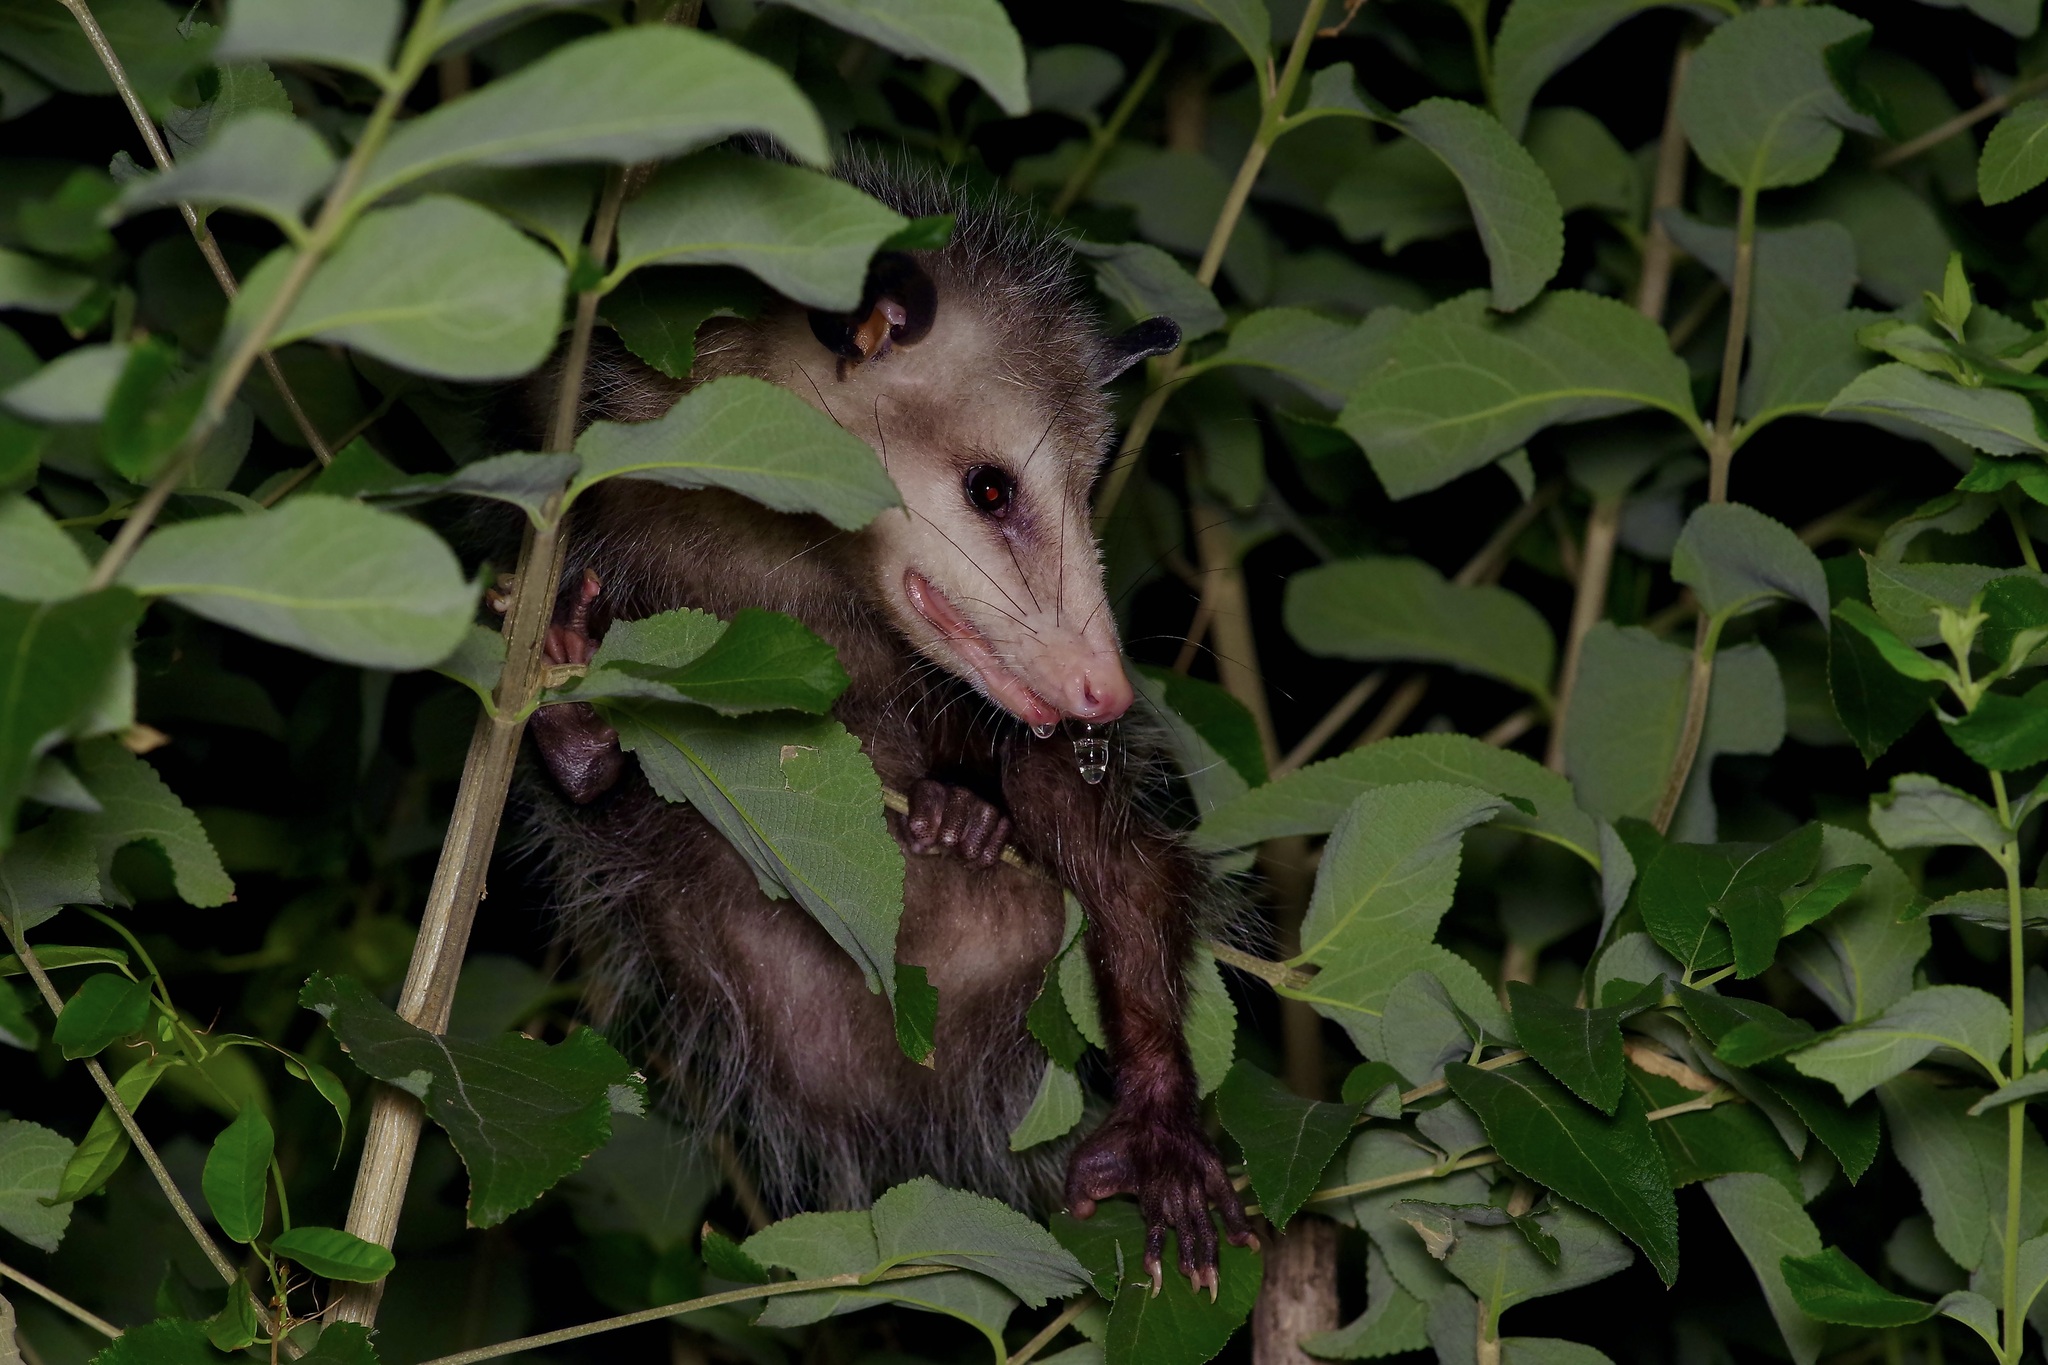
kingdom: Animalia
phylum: Chordata
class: Mammalia
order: Didelphimorphia
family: Didelphidae
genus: Didelphis
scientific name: Didelphis virginiana
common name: Virginia opossum
